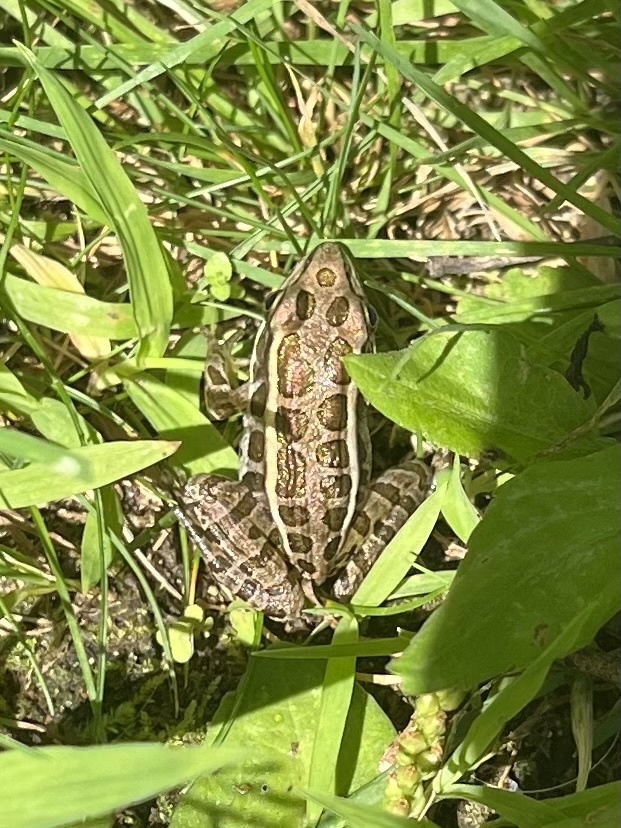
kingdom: Animalia
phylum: Chordata
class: Amphibia
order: Anura
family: Ranidae
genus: Lithobates
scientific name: Lithobates palustris
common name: Pickerel frog
